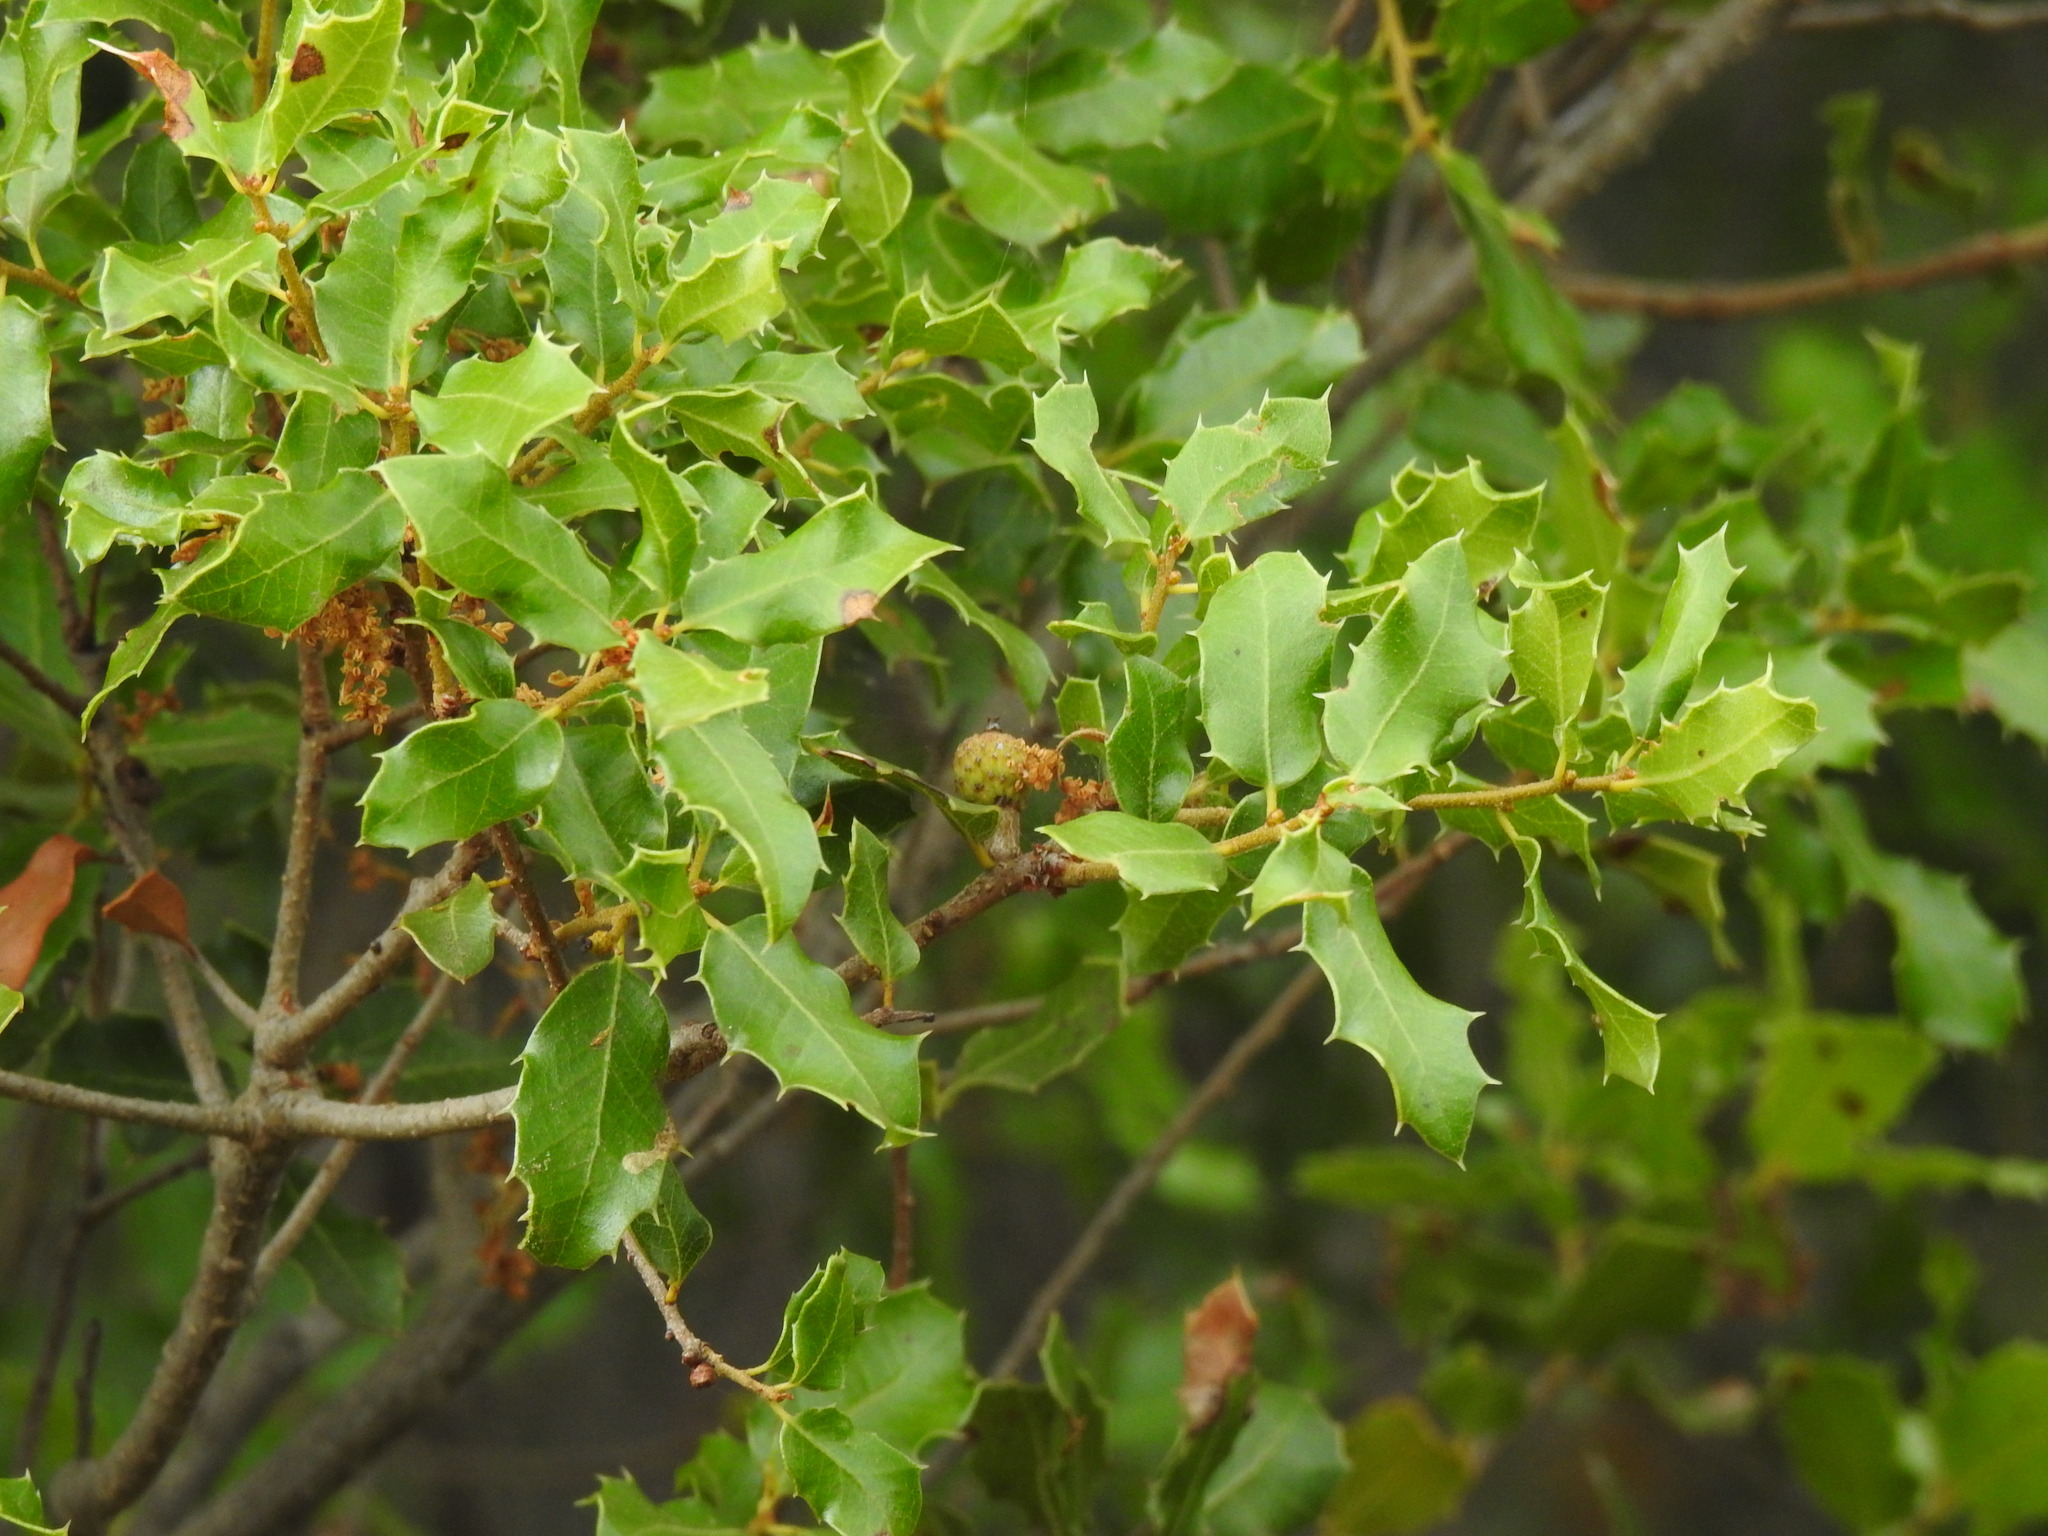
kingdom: Plantae
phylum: Tracheophyta
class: Magnoliopsida
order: Fagales
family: Fagaceae
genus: Quercus
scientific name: Quercus coccifera
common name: Kermes oak
